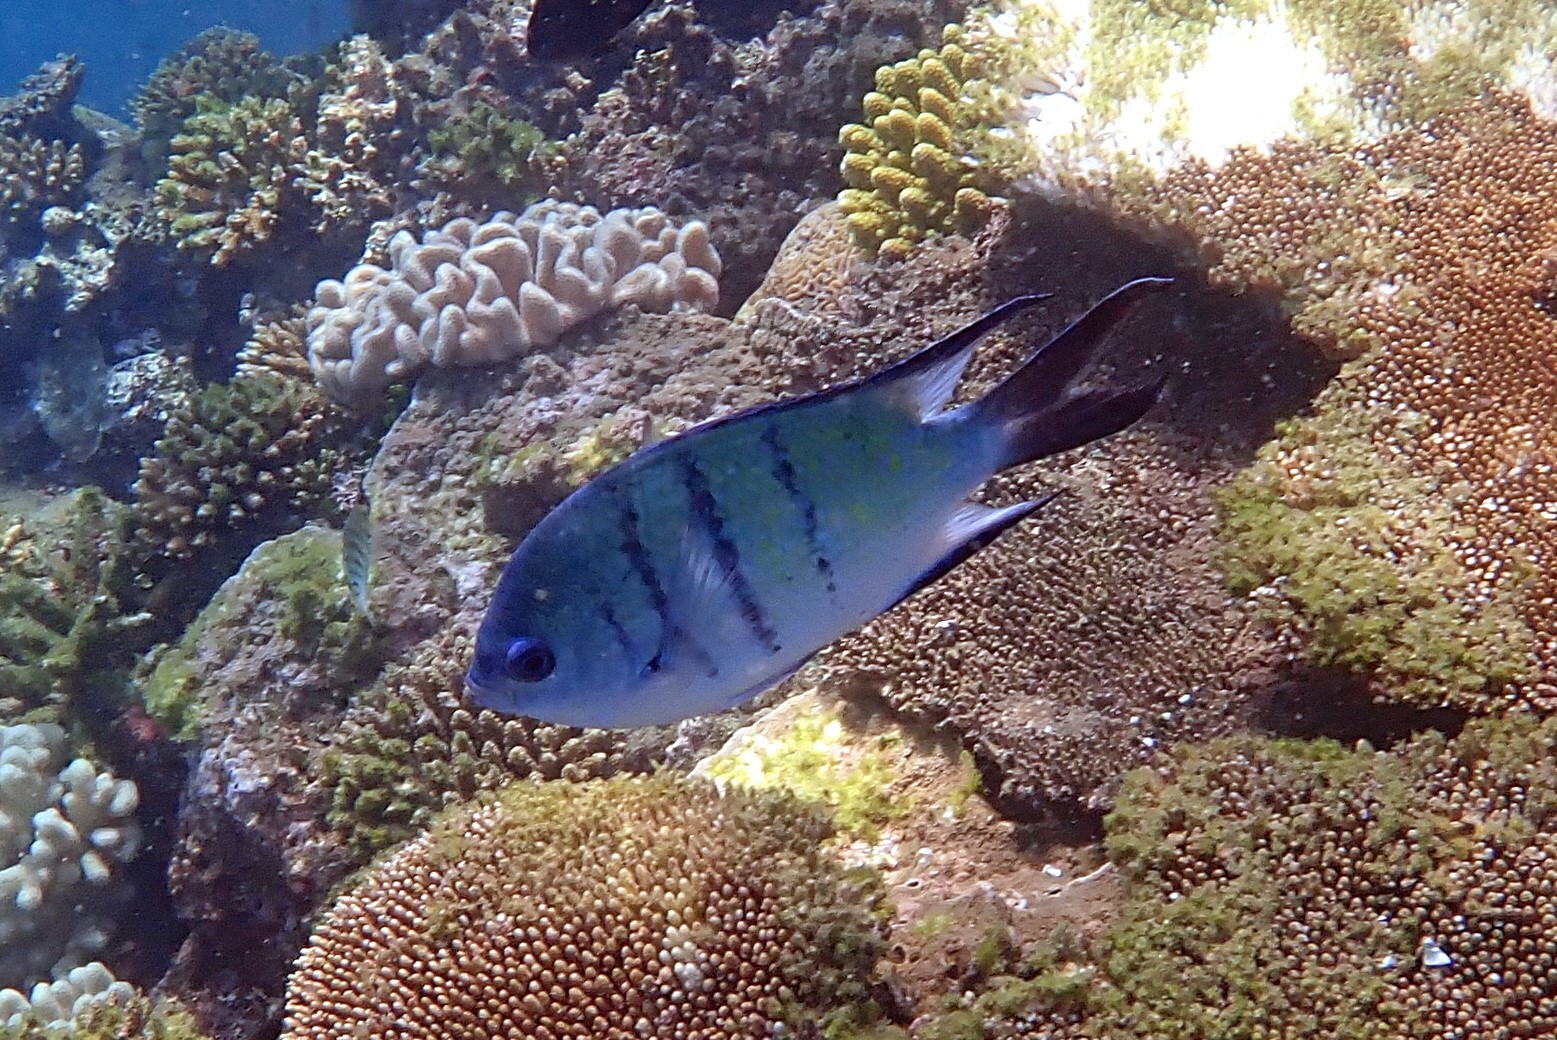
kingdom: Animalia
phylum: Chordata
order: Perciformes
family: Pomacentridae
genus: Abudefduf
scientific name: Abudefduf whitleyi
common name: Whitley's seargent
